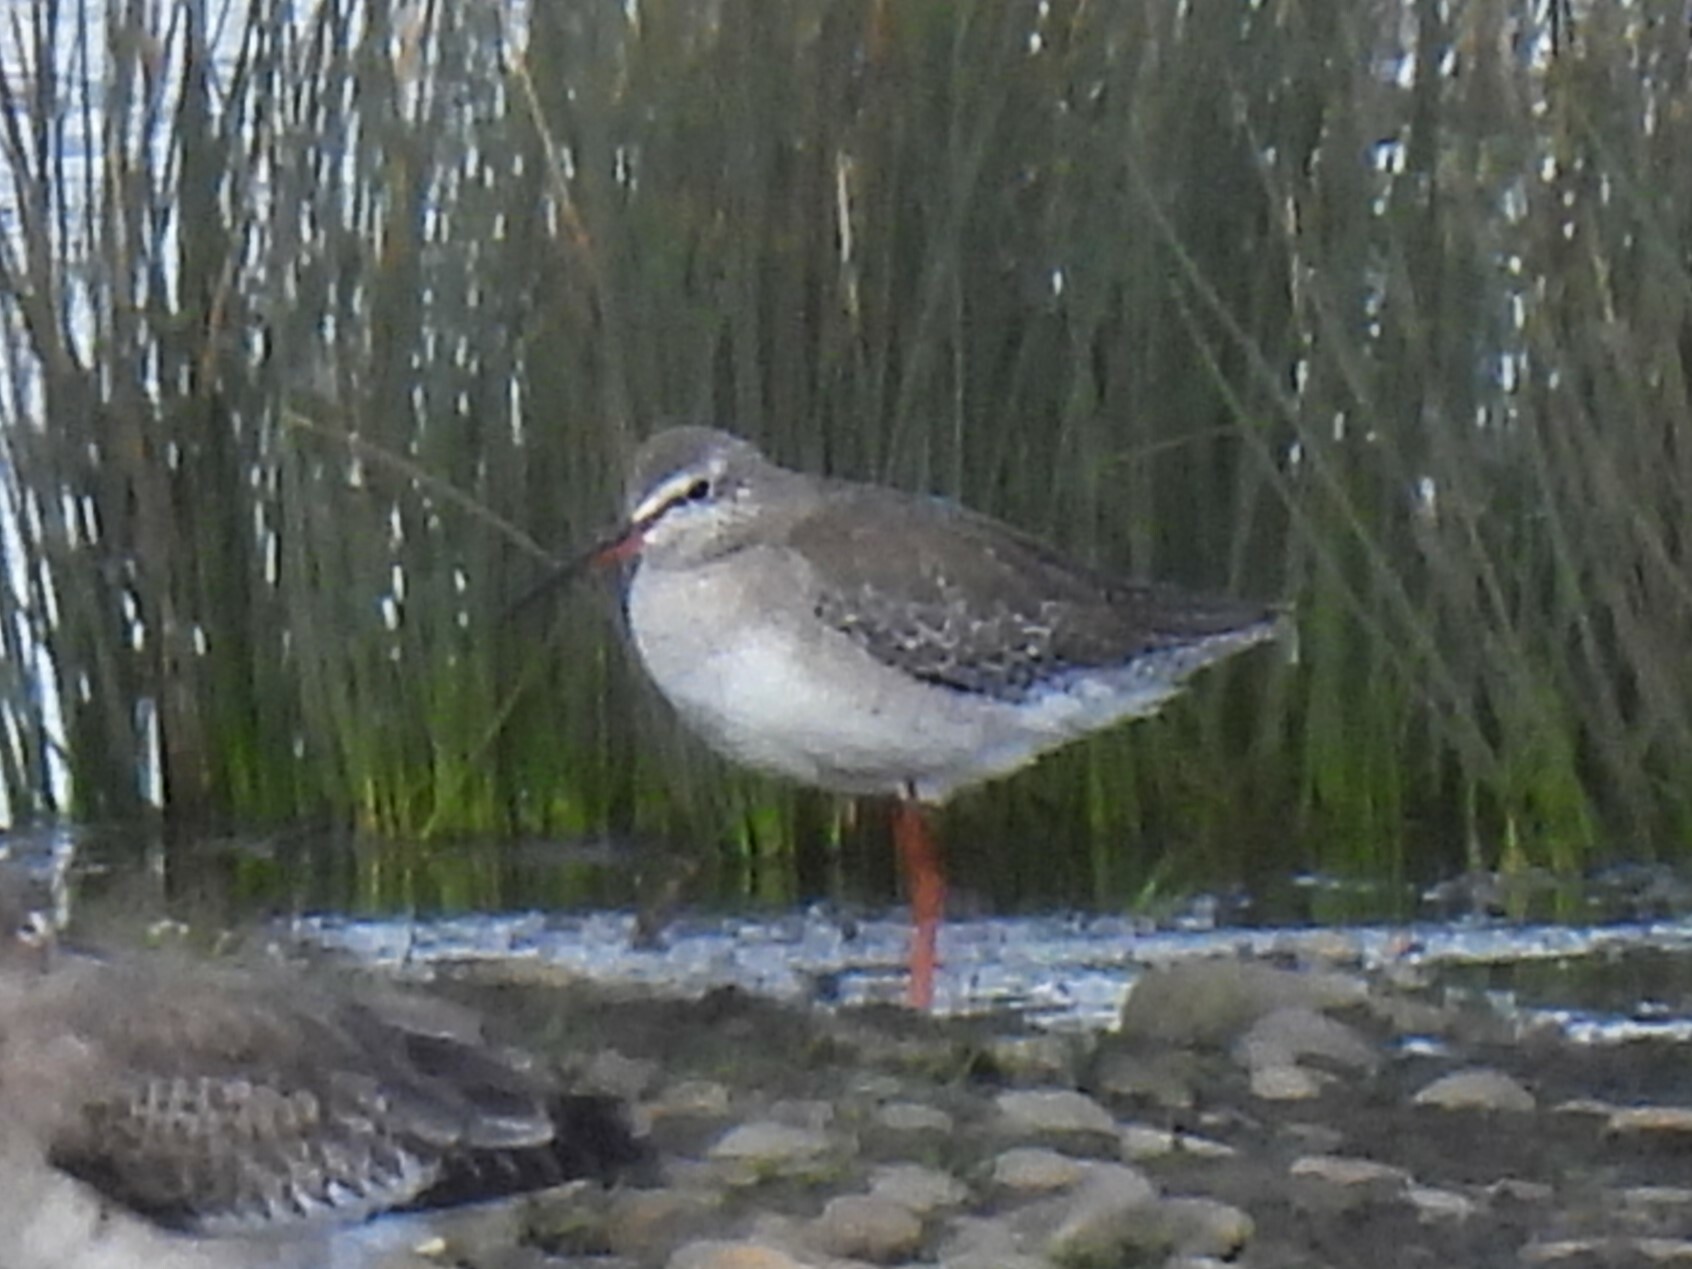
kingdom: Animalia
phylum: Chordata
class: Aves
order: Charadriiformes
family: Scolopacidae
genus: Tringa
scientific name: Tringa erythropus
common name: Spotted redshank
